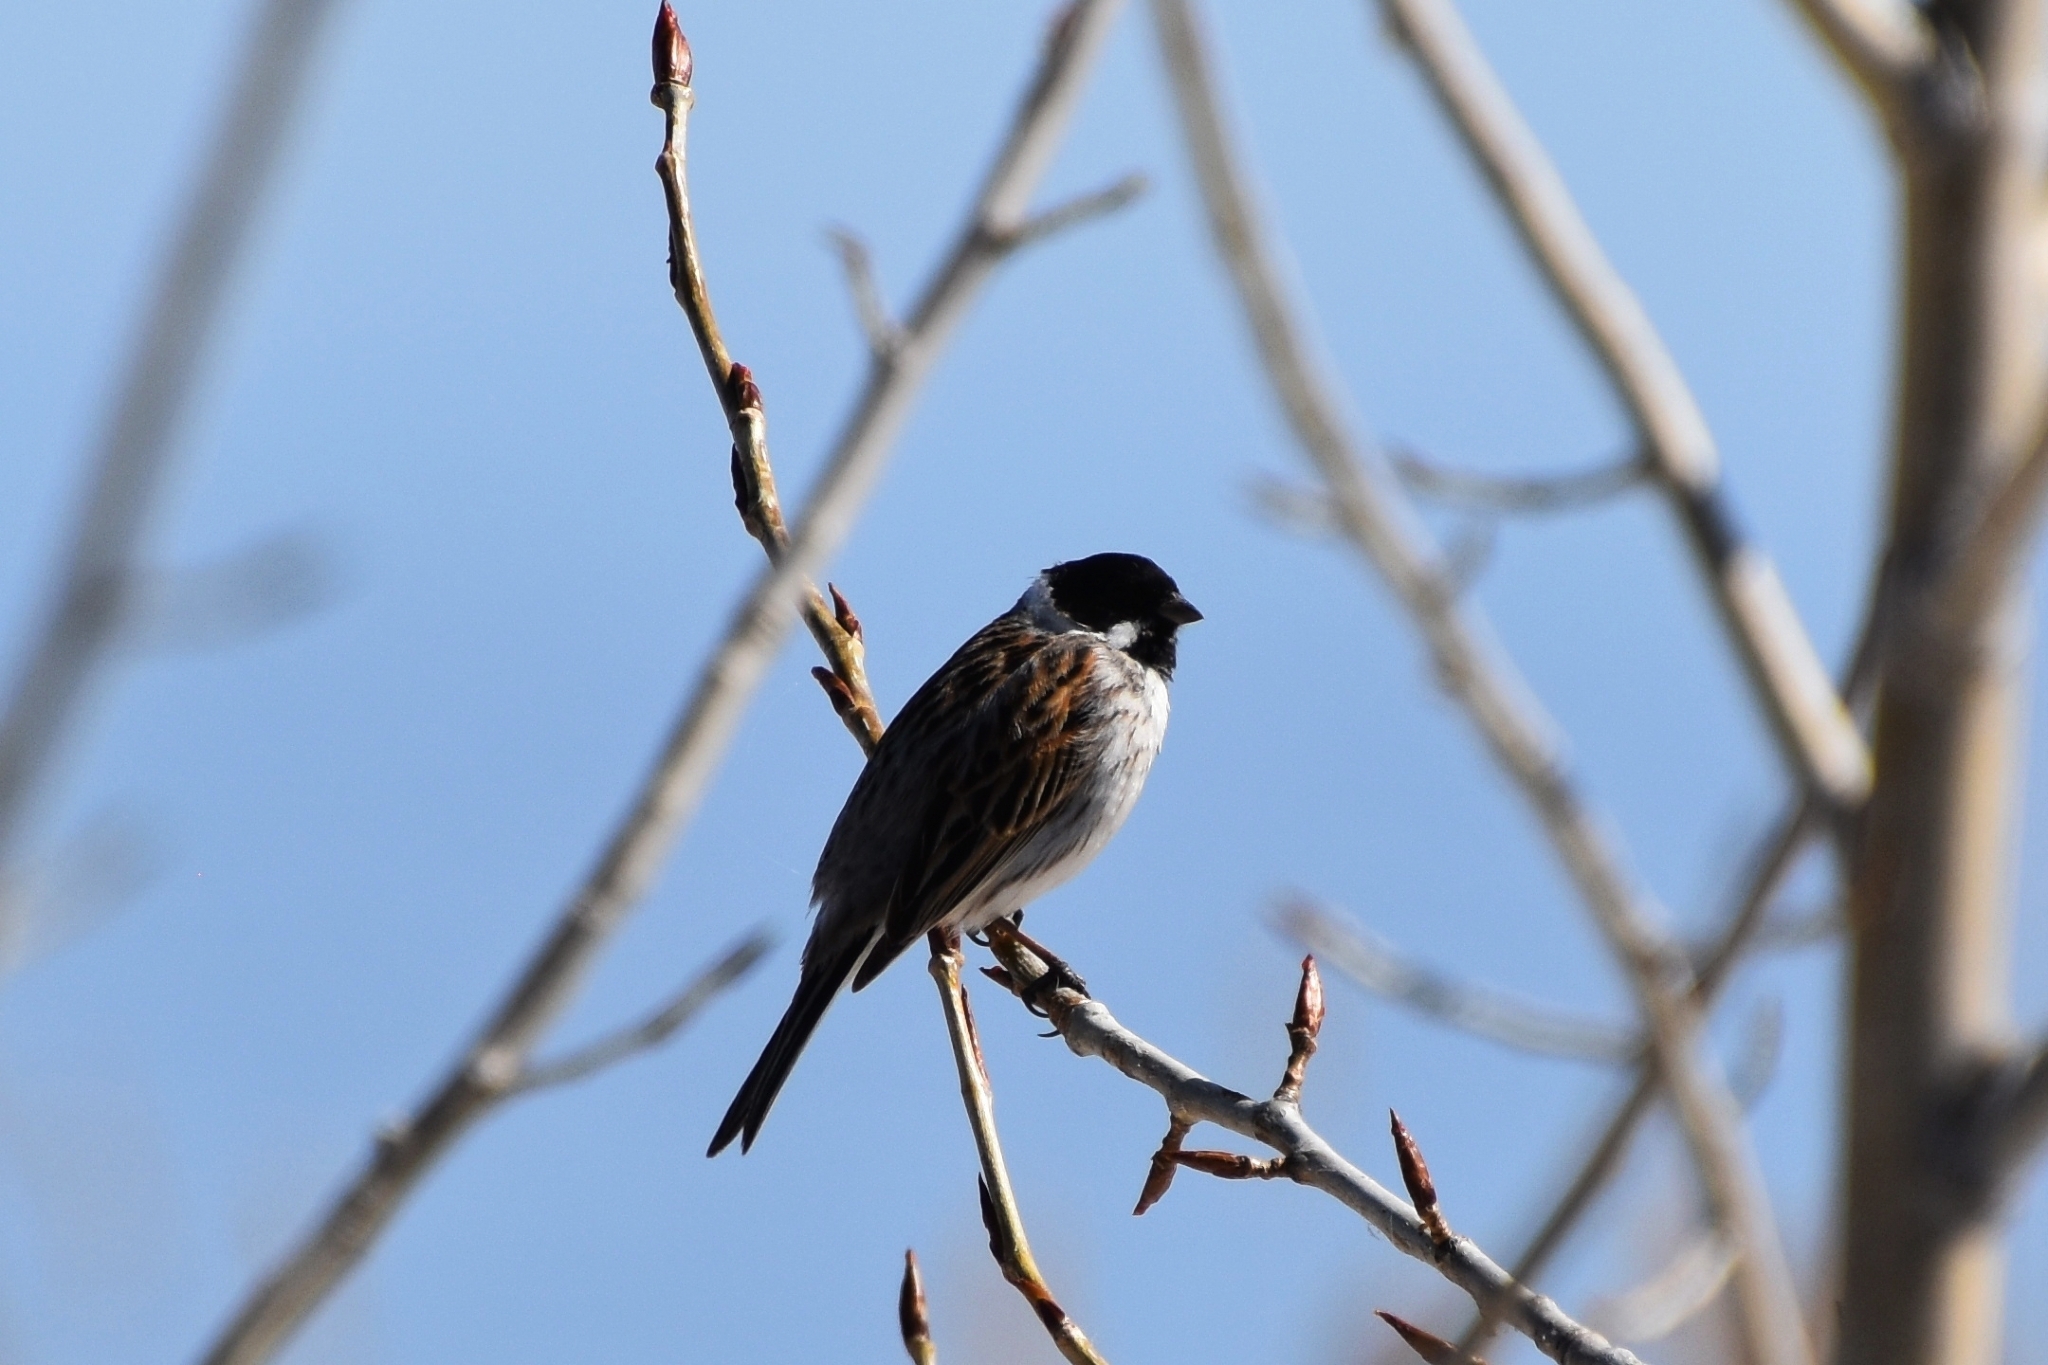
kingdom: Animalia
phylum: Chordata
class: Aves
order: Passeriformes
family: Emberizidae
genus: Emberiza
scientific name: Emberiza schoeniclus
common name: Reed bunting
